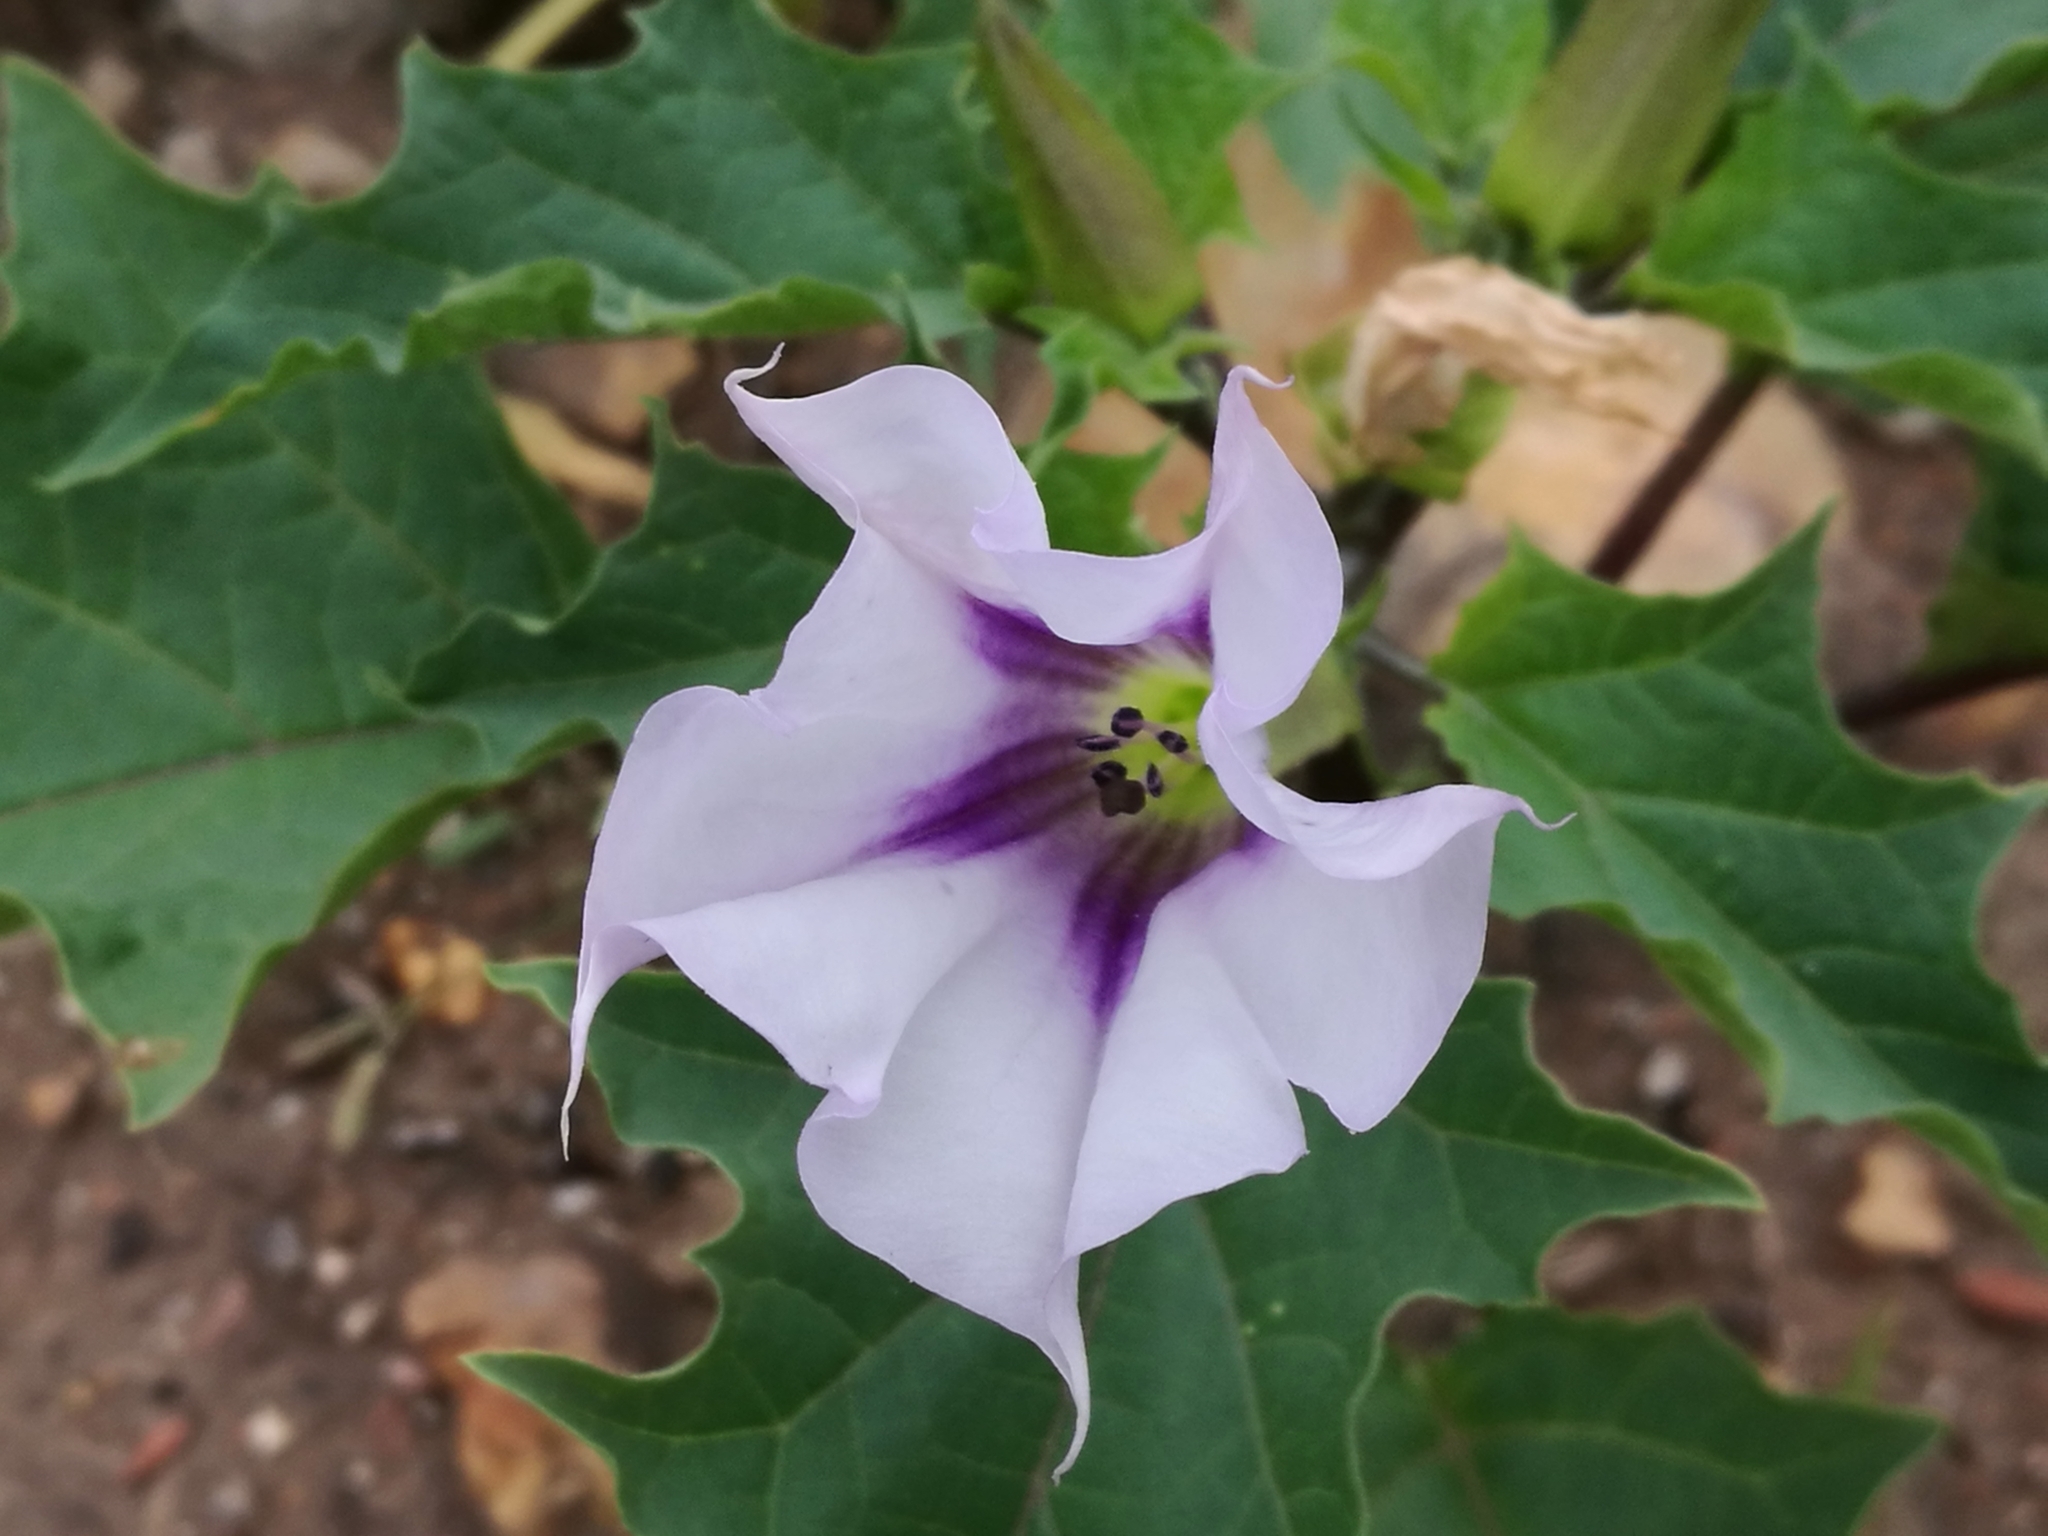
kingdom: Plantae
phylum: Tracheophyta
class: Magnoliopsida
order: Solanales
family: Solanaceae
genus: Datura
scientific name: Datura stramonium
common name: Thorn-apple
